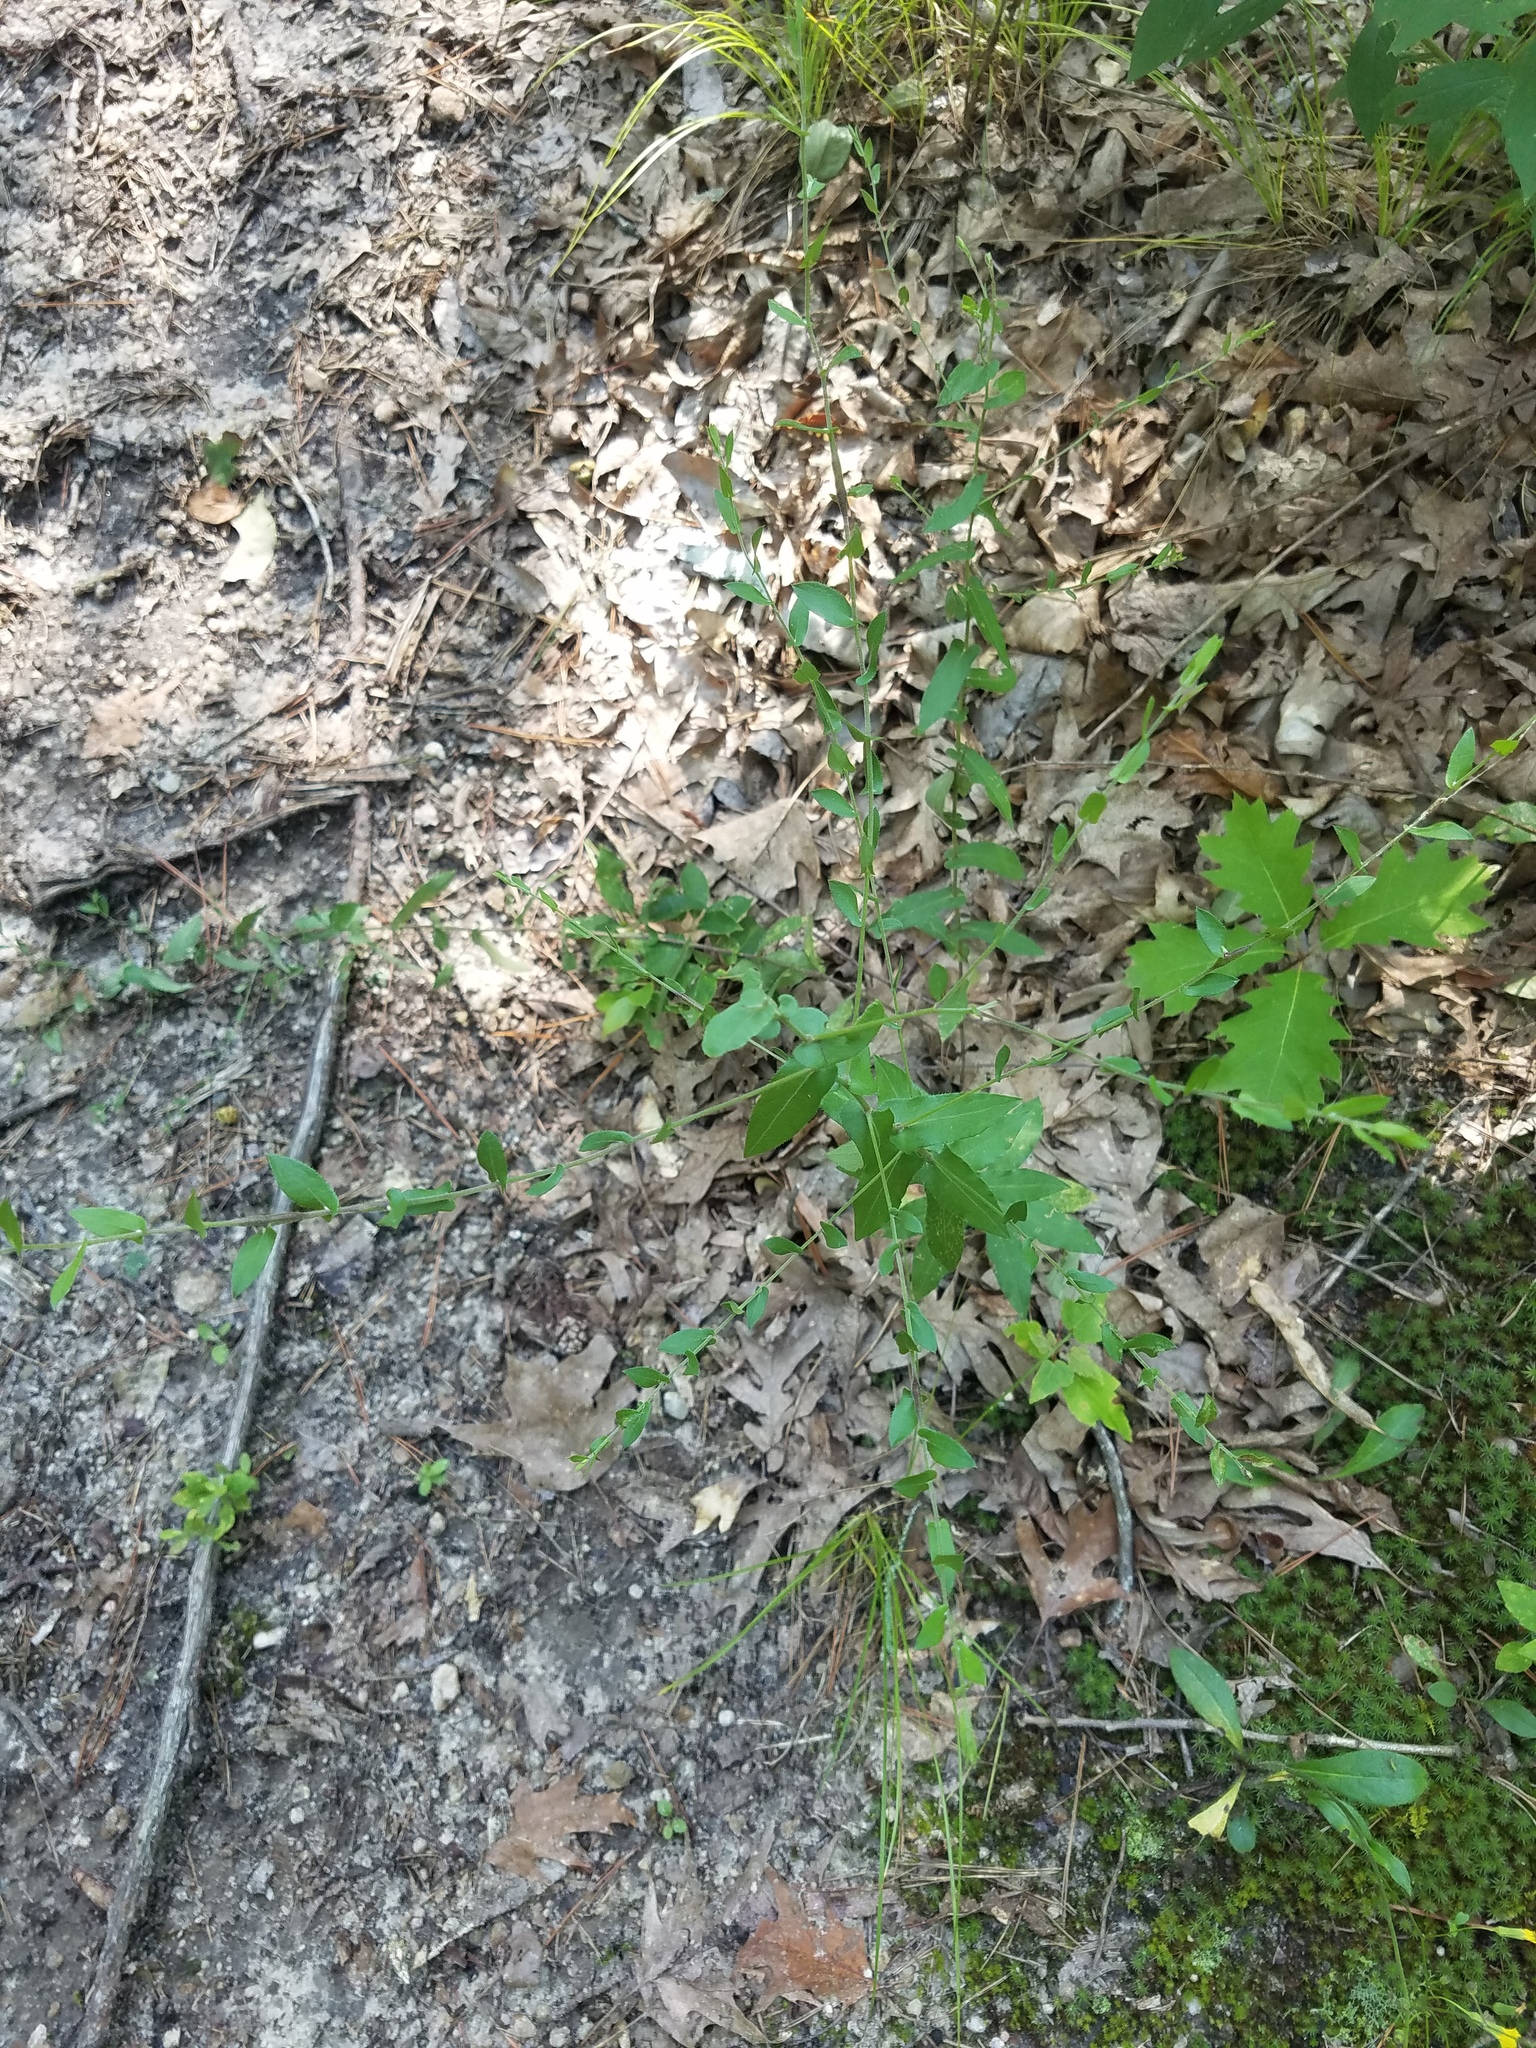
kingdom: Plantae
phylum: Tracheophyta
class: Magnoliopsida
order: Asterales
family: Asteraceae
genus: Symphyotrichum
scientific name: Symphyotrichum patens
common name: Late purple aster
